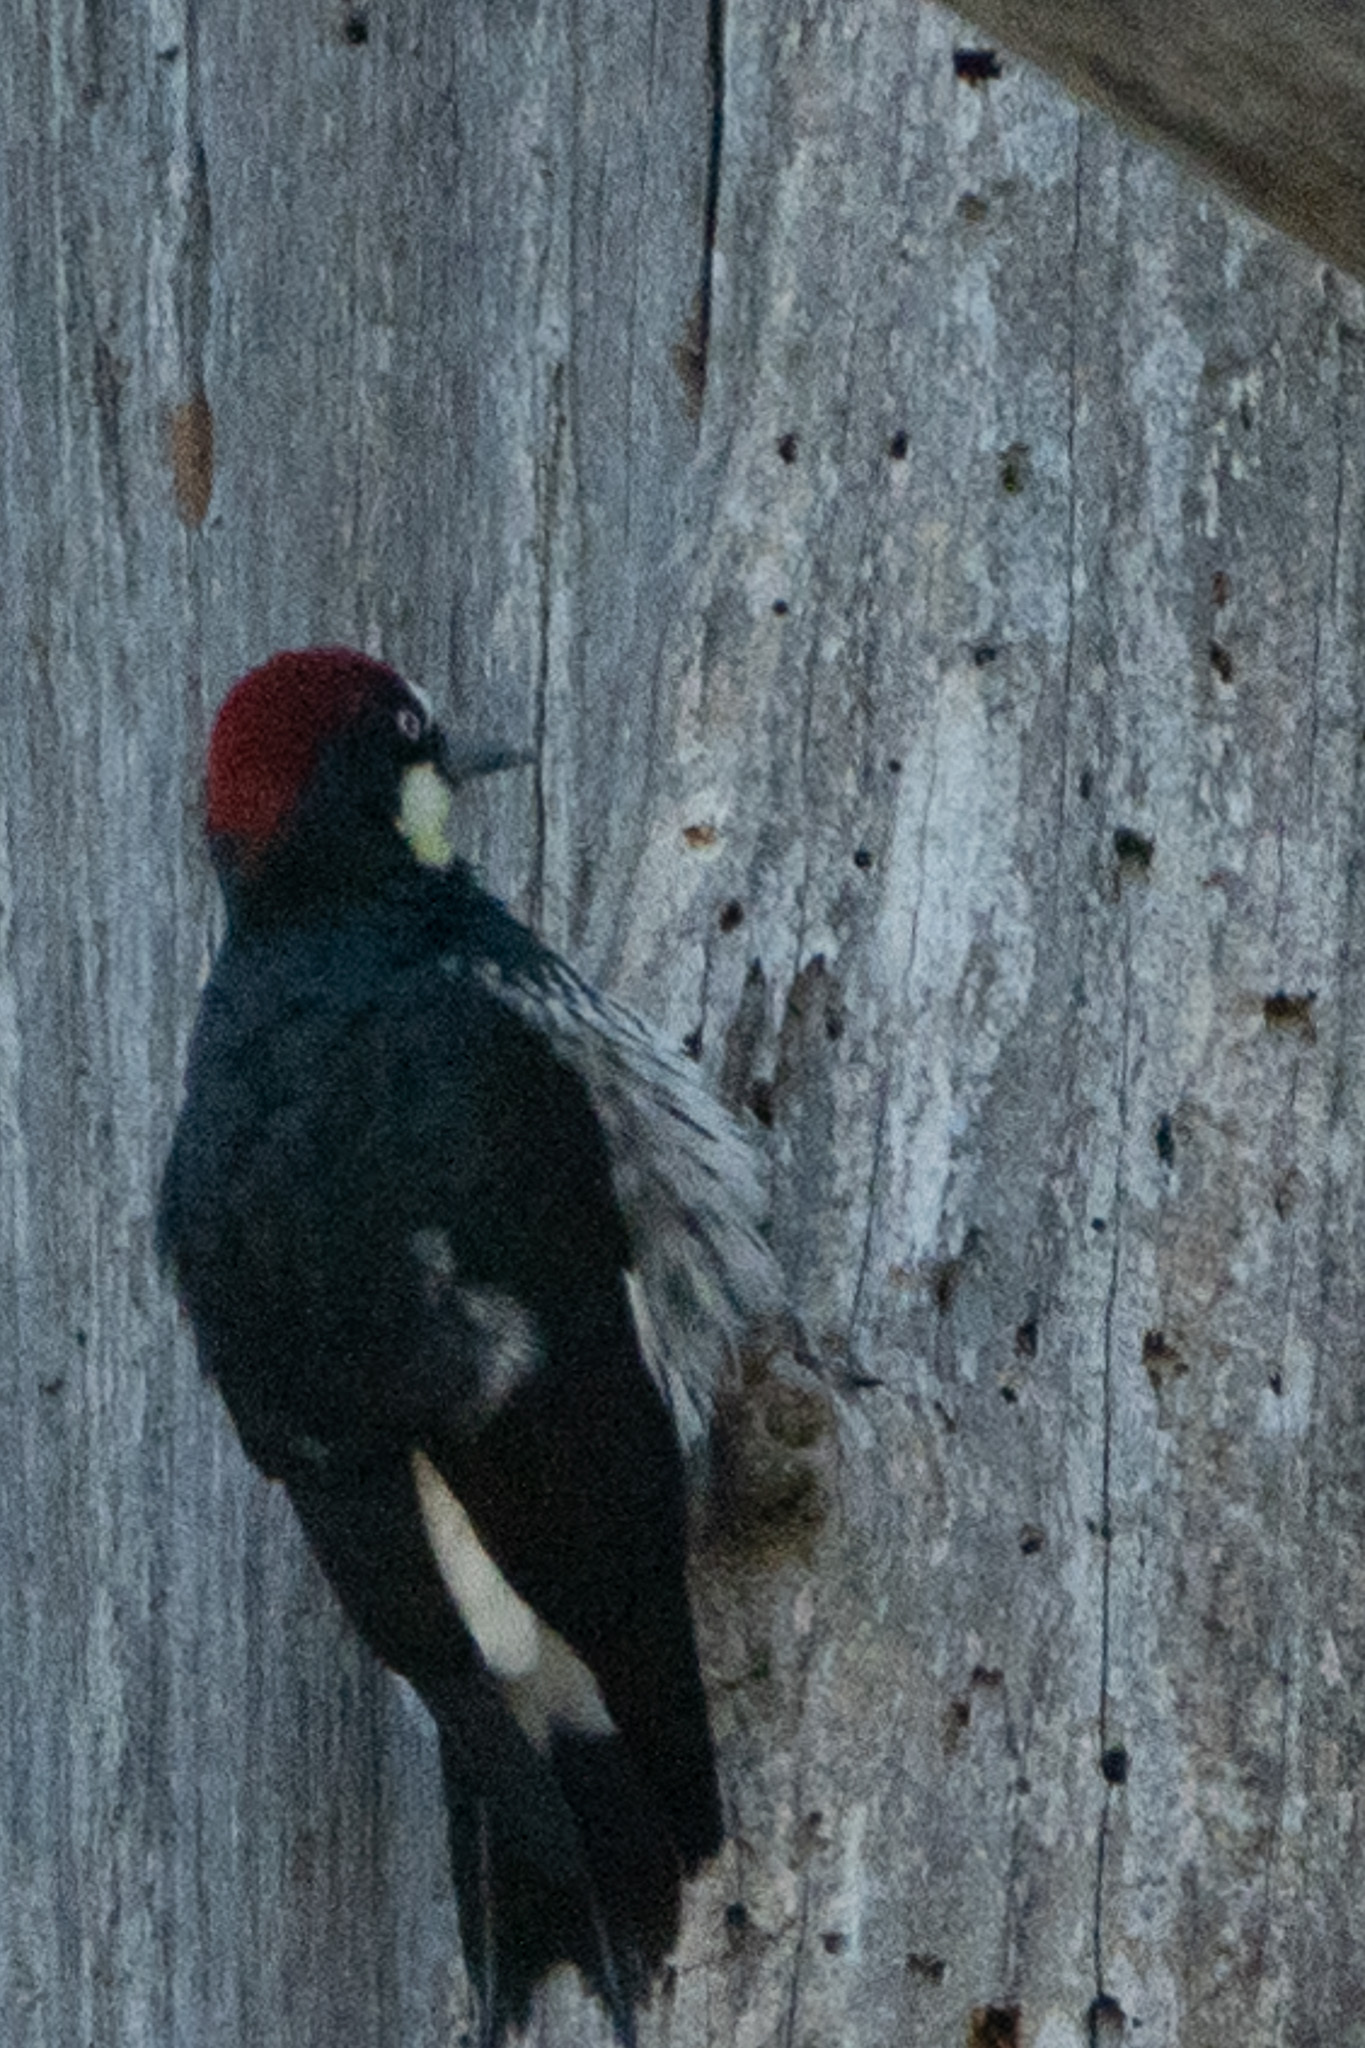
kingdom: Animalia
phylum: Chordata
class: Aves
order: Piciformes
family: Picidae
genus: Melanerpes
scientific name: Melanerpes formicivorus
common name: Acorn woodpecker
